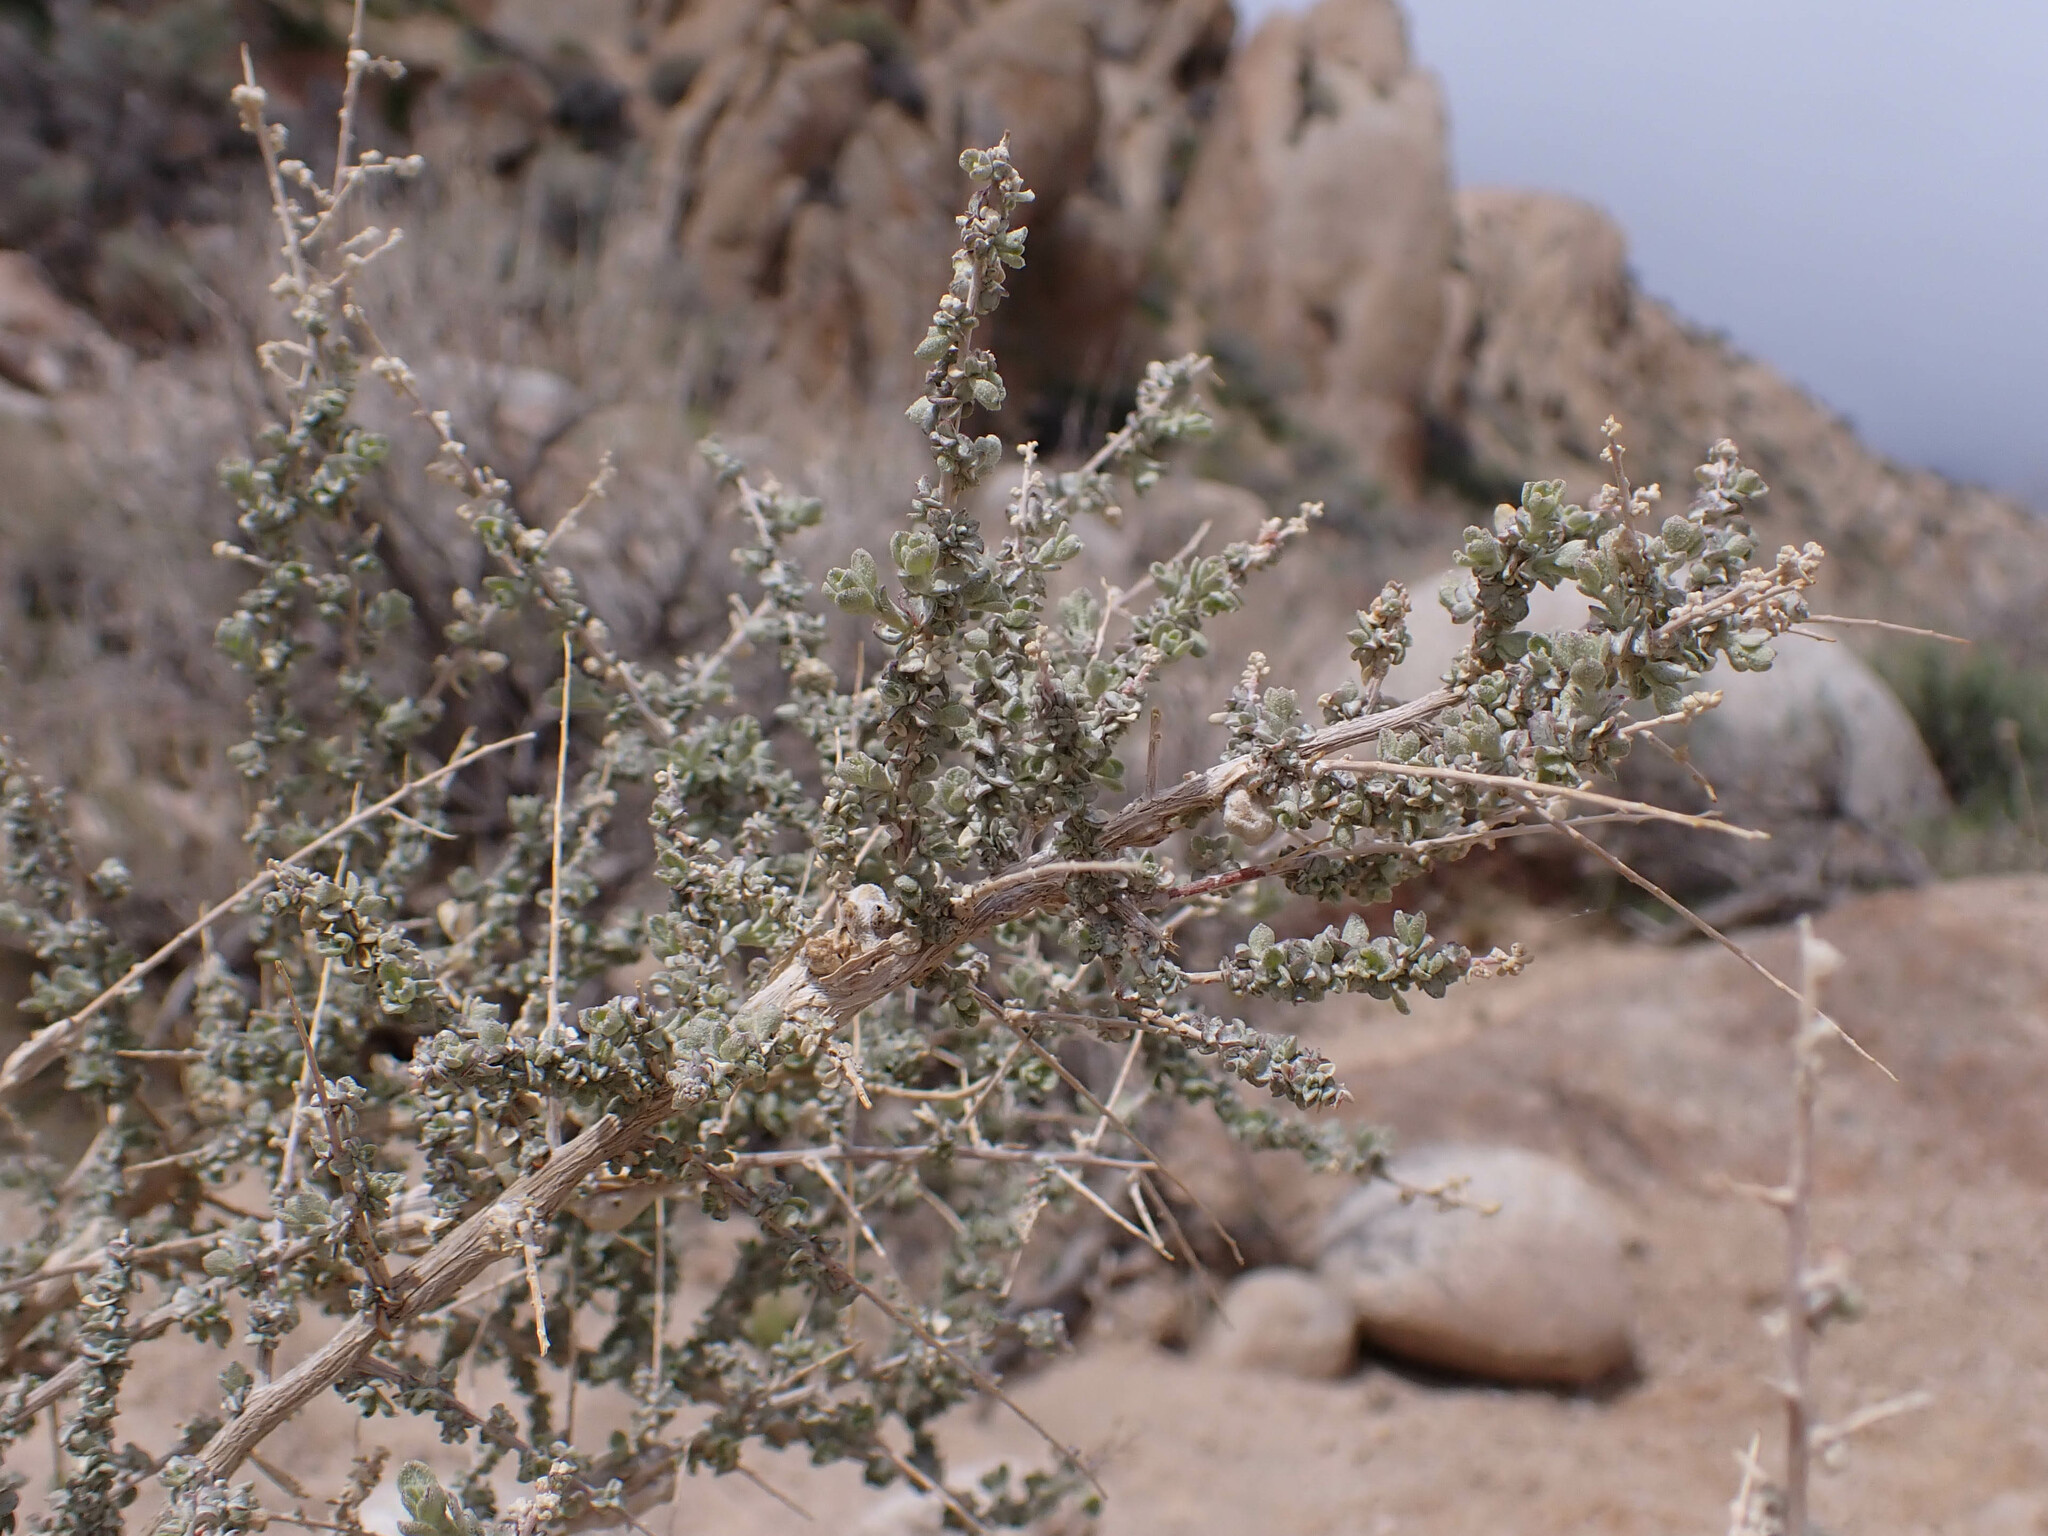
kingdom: Plantae
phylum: Tracheophyta
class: Magnoliopsida
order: Caryophyllales
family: Amaranthaceae
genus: Atriplex
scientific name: Atriplex confertifolia
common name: Shadscale
